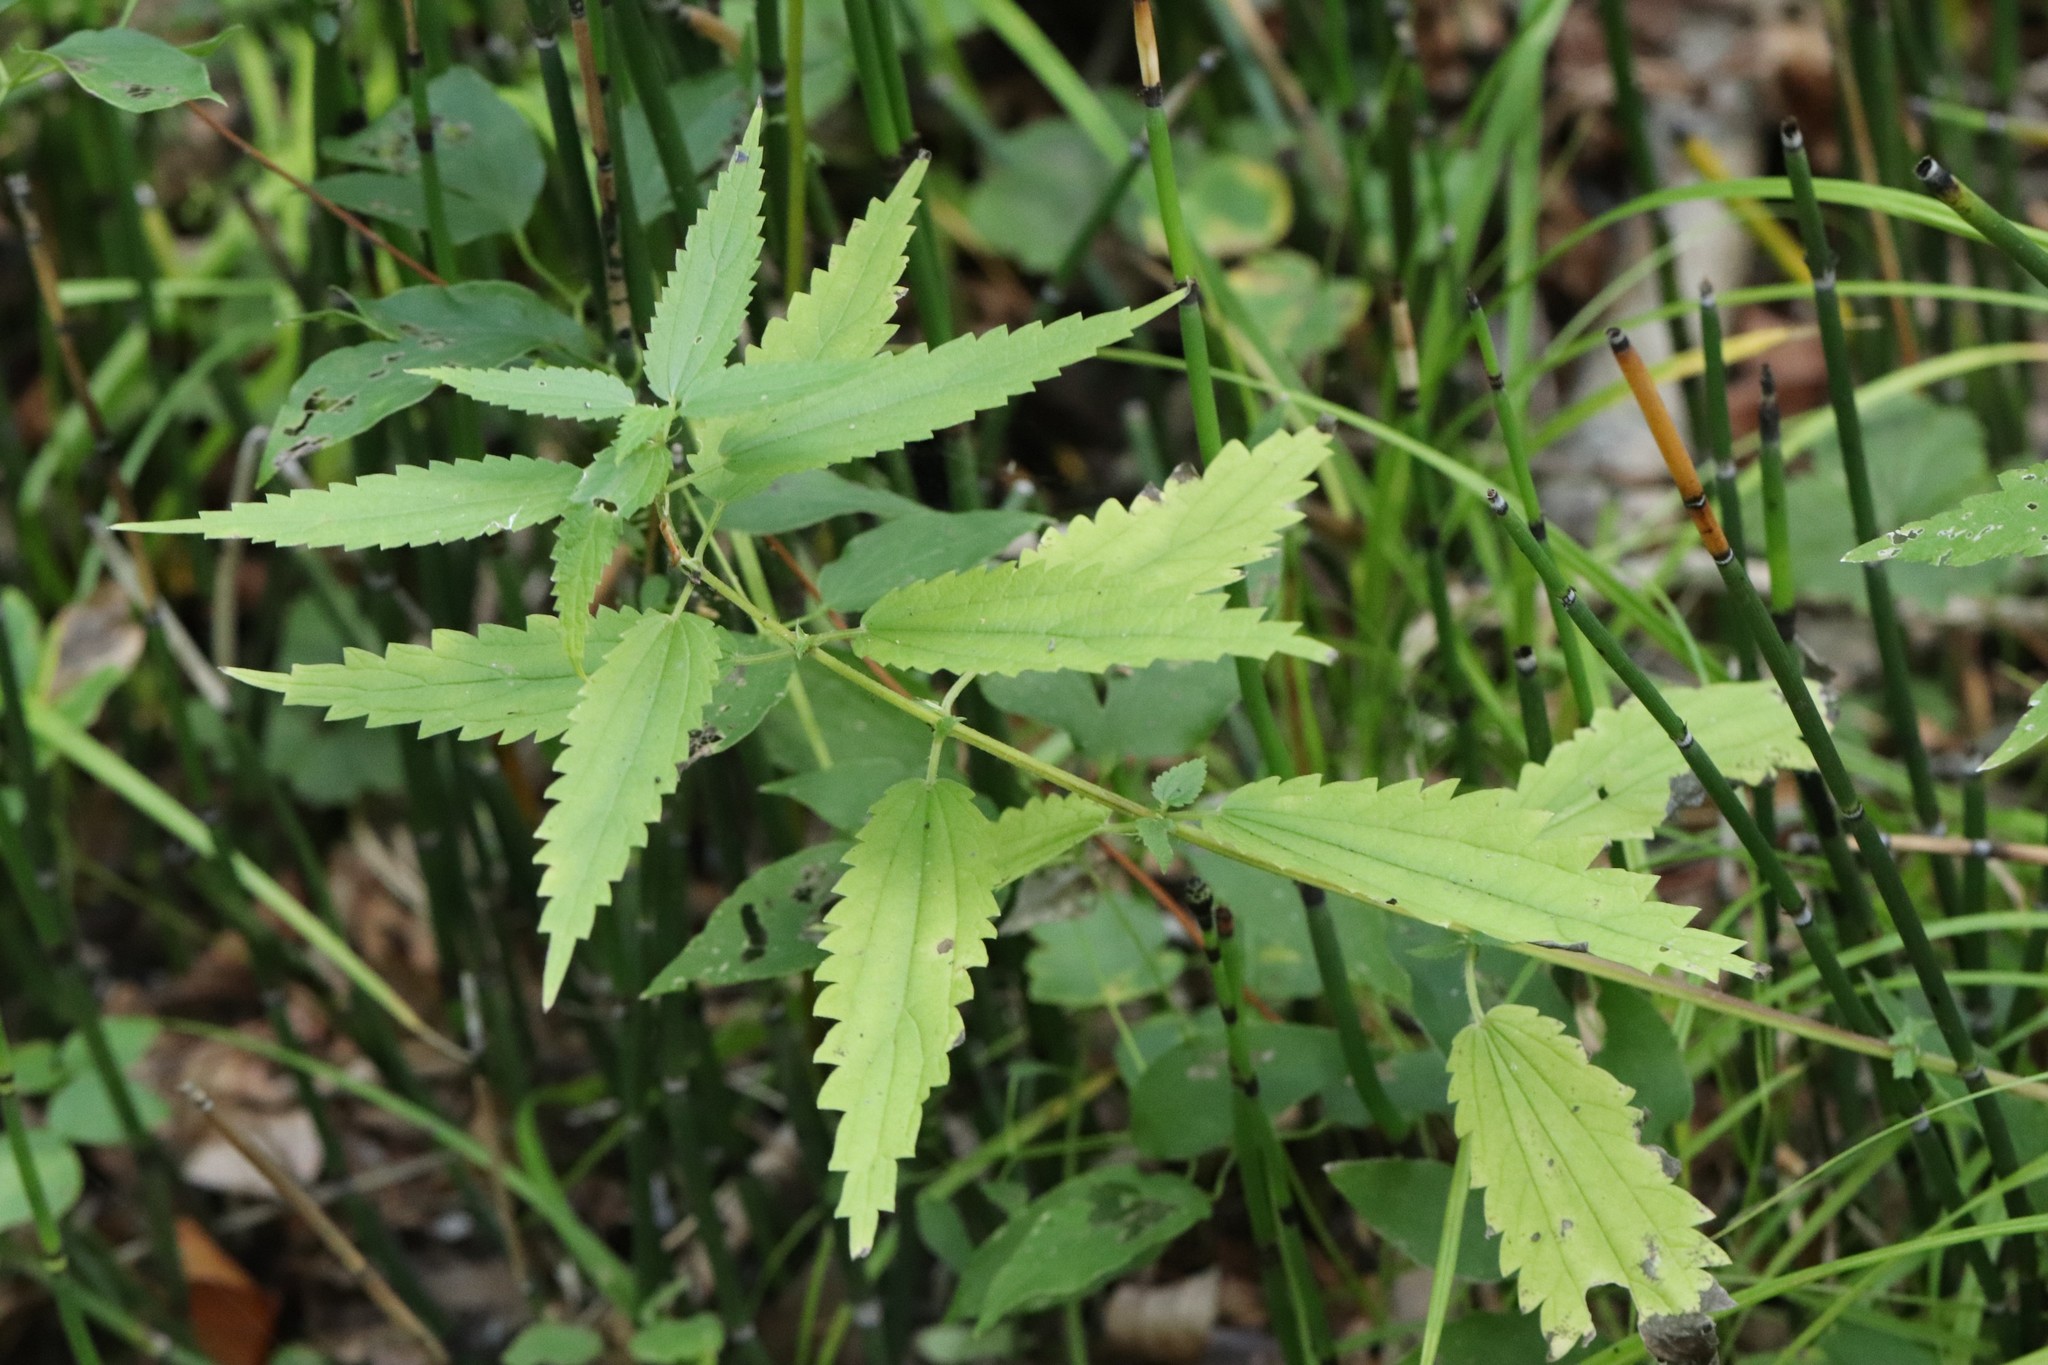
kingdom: Plantae
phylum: Tracheophyta
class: Magnoliopsida
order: Rosales
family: Urticaceae
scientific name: Urticaceae
